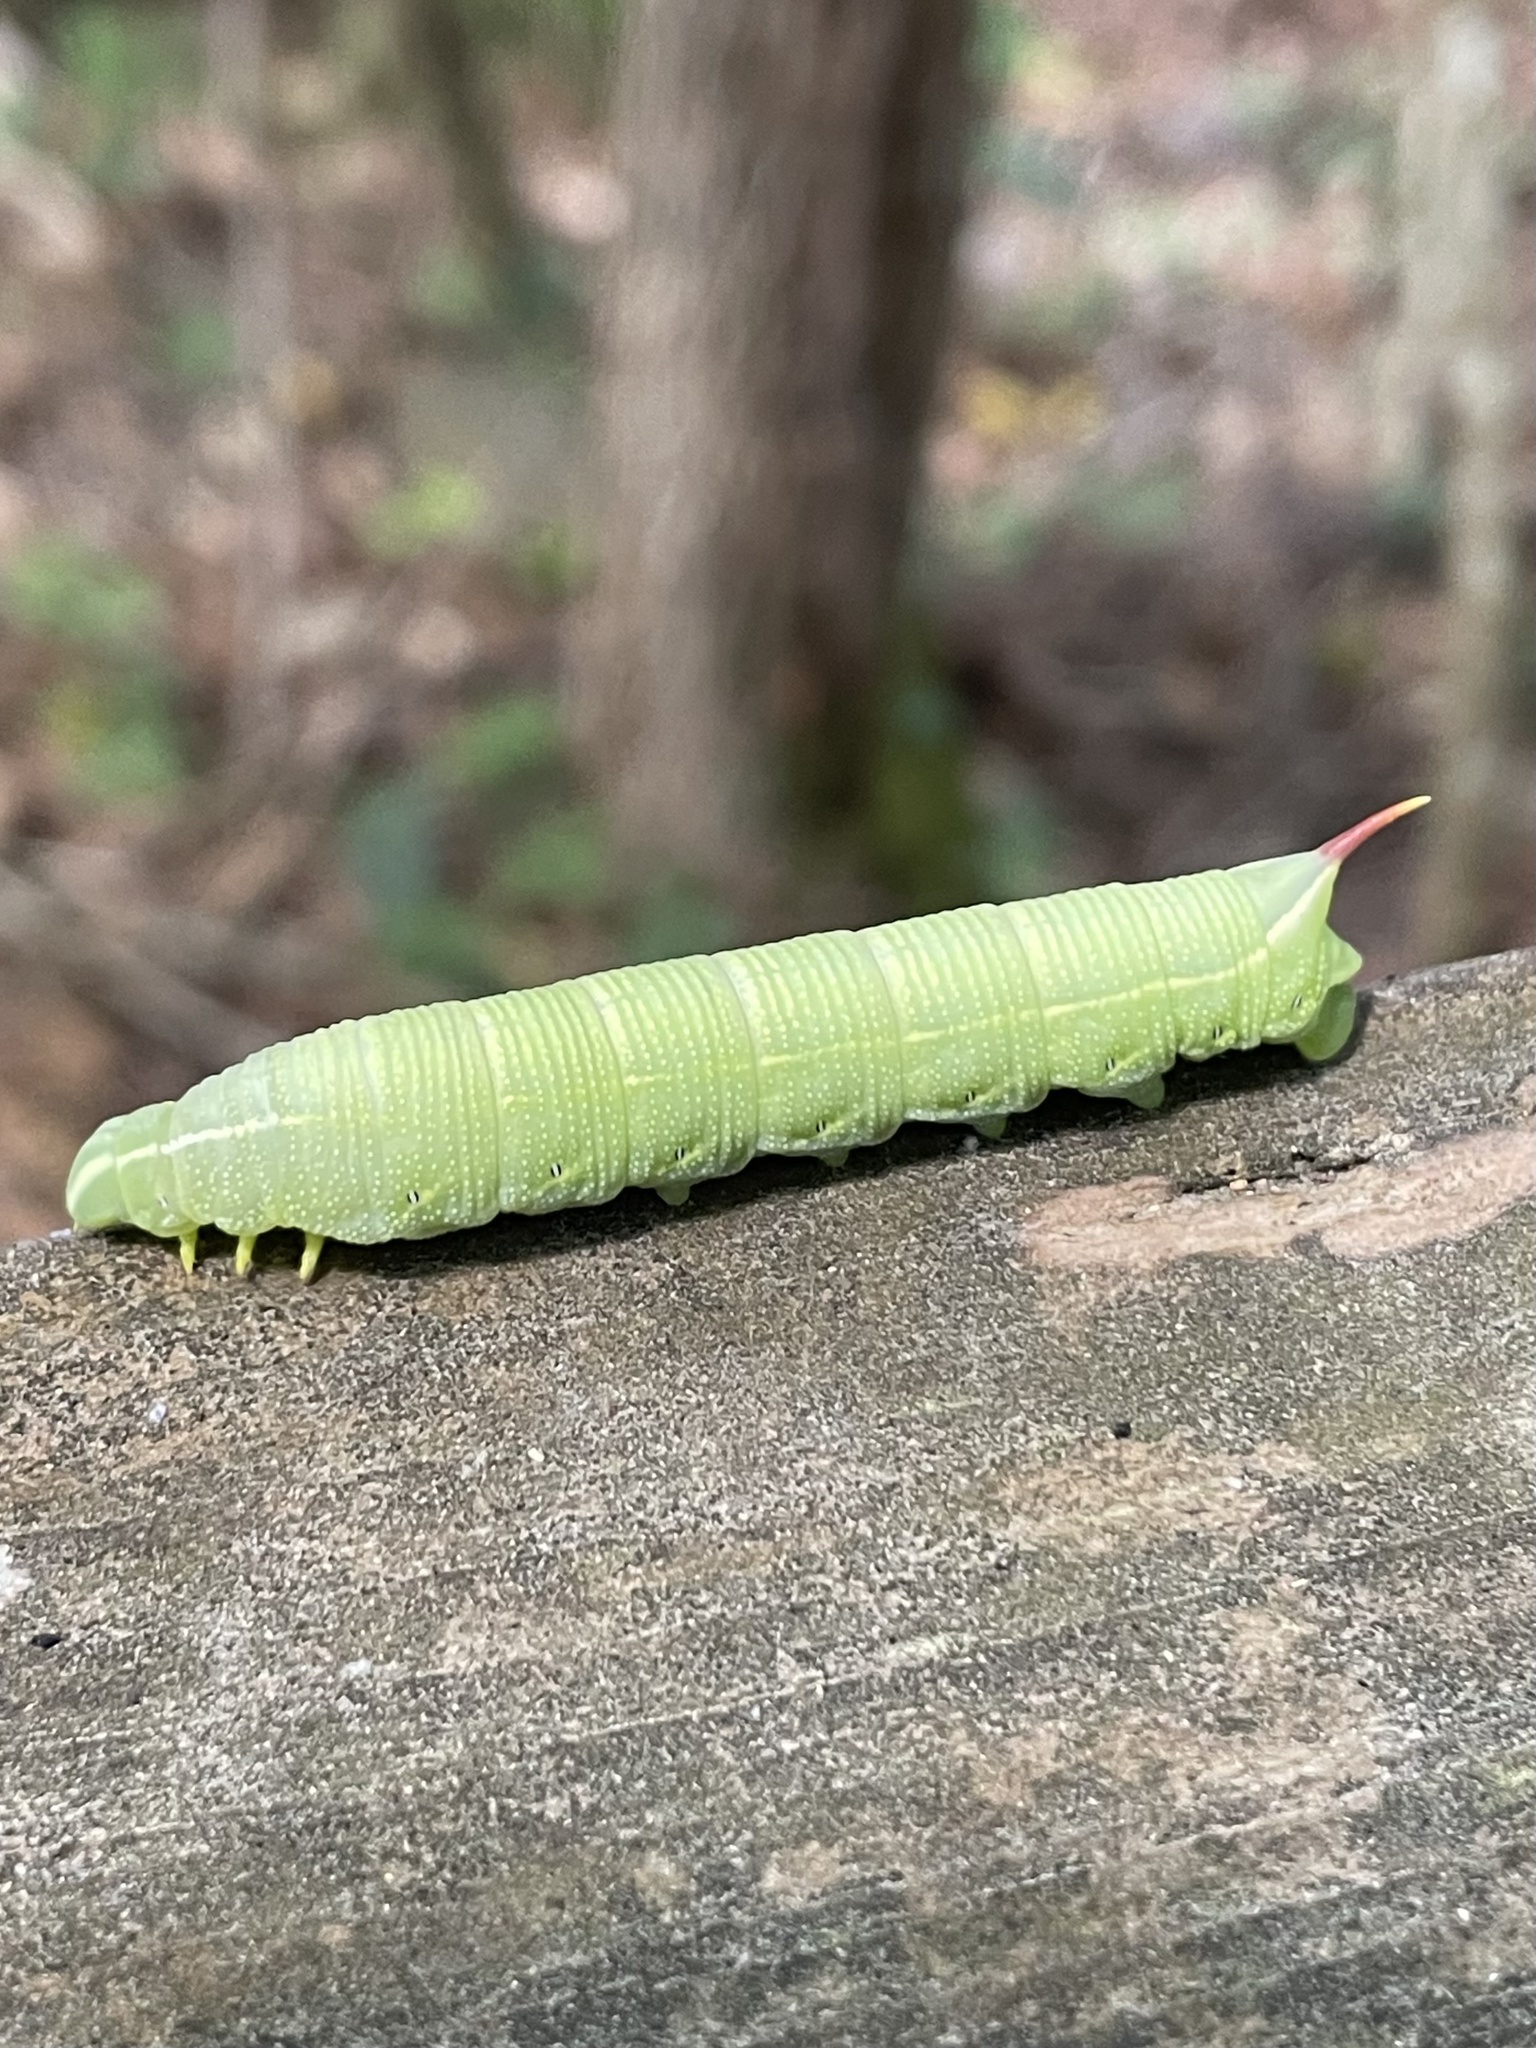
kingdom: Animalia
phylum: Arthropoda
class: Insecta
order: Lepidoptera
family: Sphingidae
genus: Deidamia
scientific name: Deidamia inscriptum
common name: Lettered sphinx
